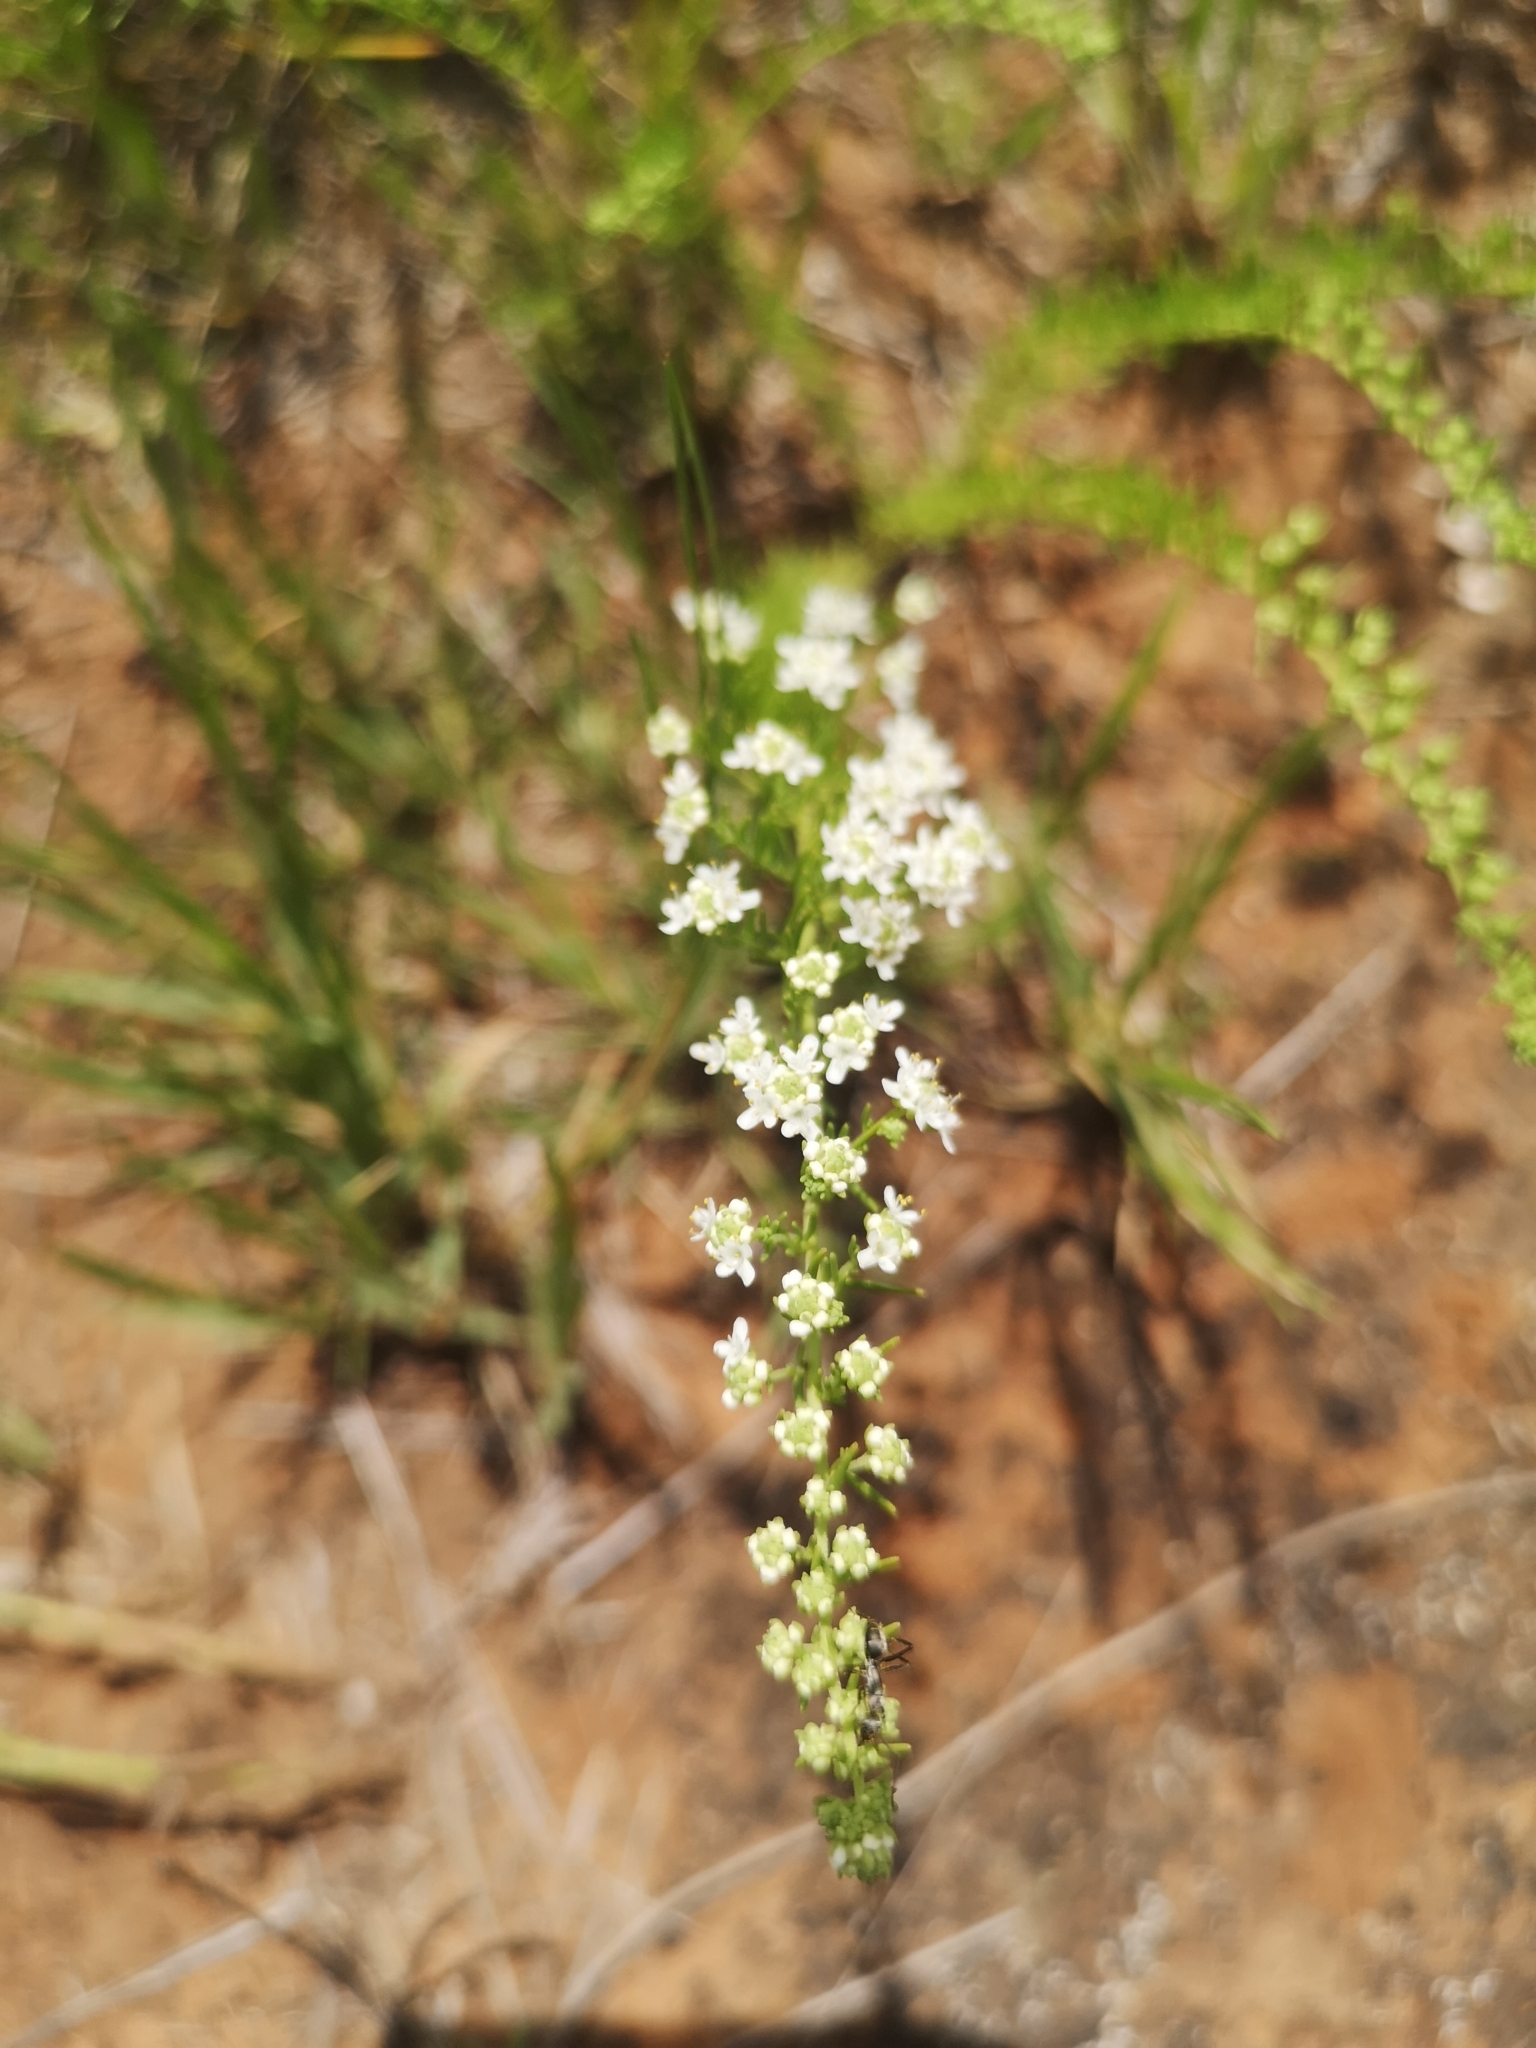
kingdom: Plantae
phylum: Tracheophyta
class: Magnoliopsida
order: Lamiales
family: Scrophulariaceae
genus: Selago
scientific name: Selago densiflora
